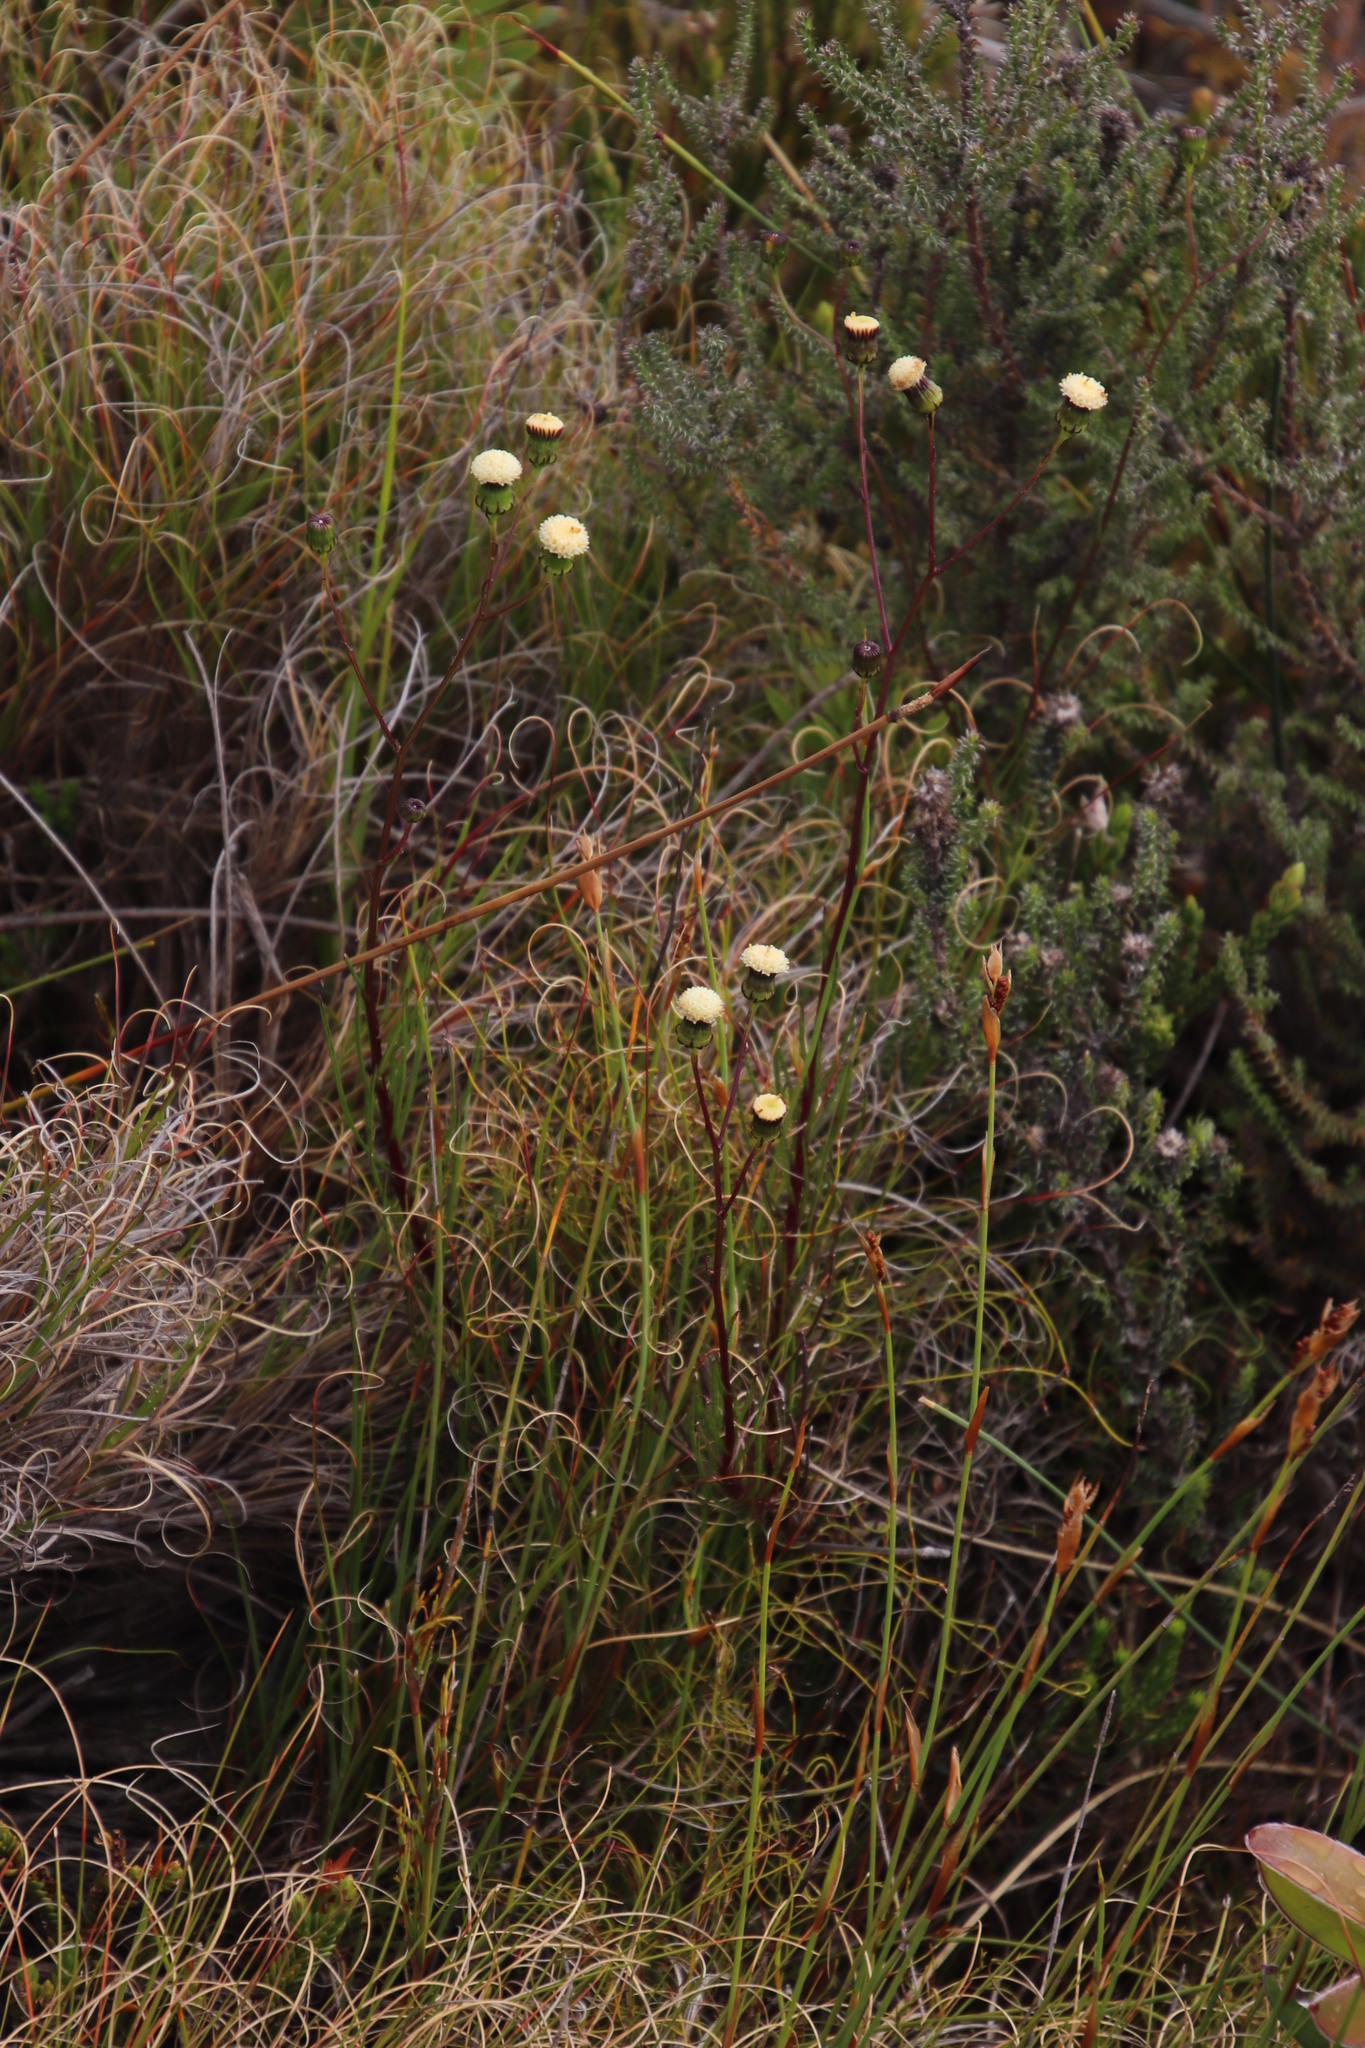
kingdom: Plantae
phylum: Tracheophyta
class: Magnoliopsida
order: Asterales
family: Asteraceae
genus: Senecio
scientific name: Senecio paniculatus
